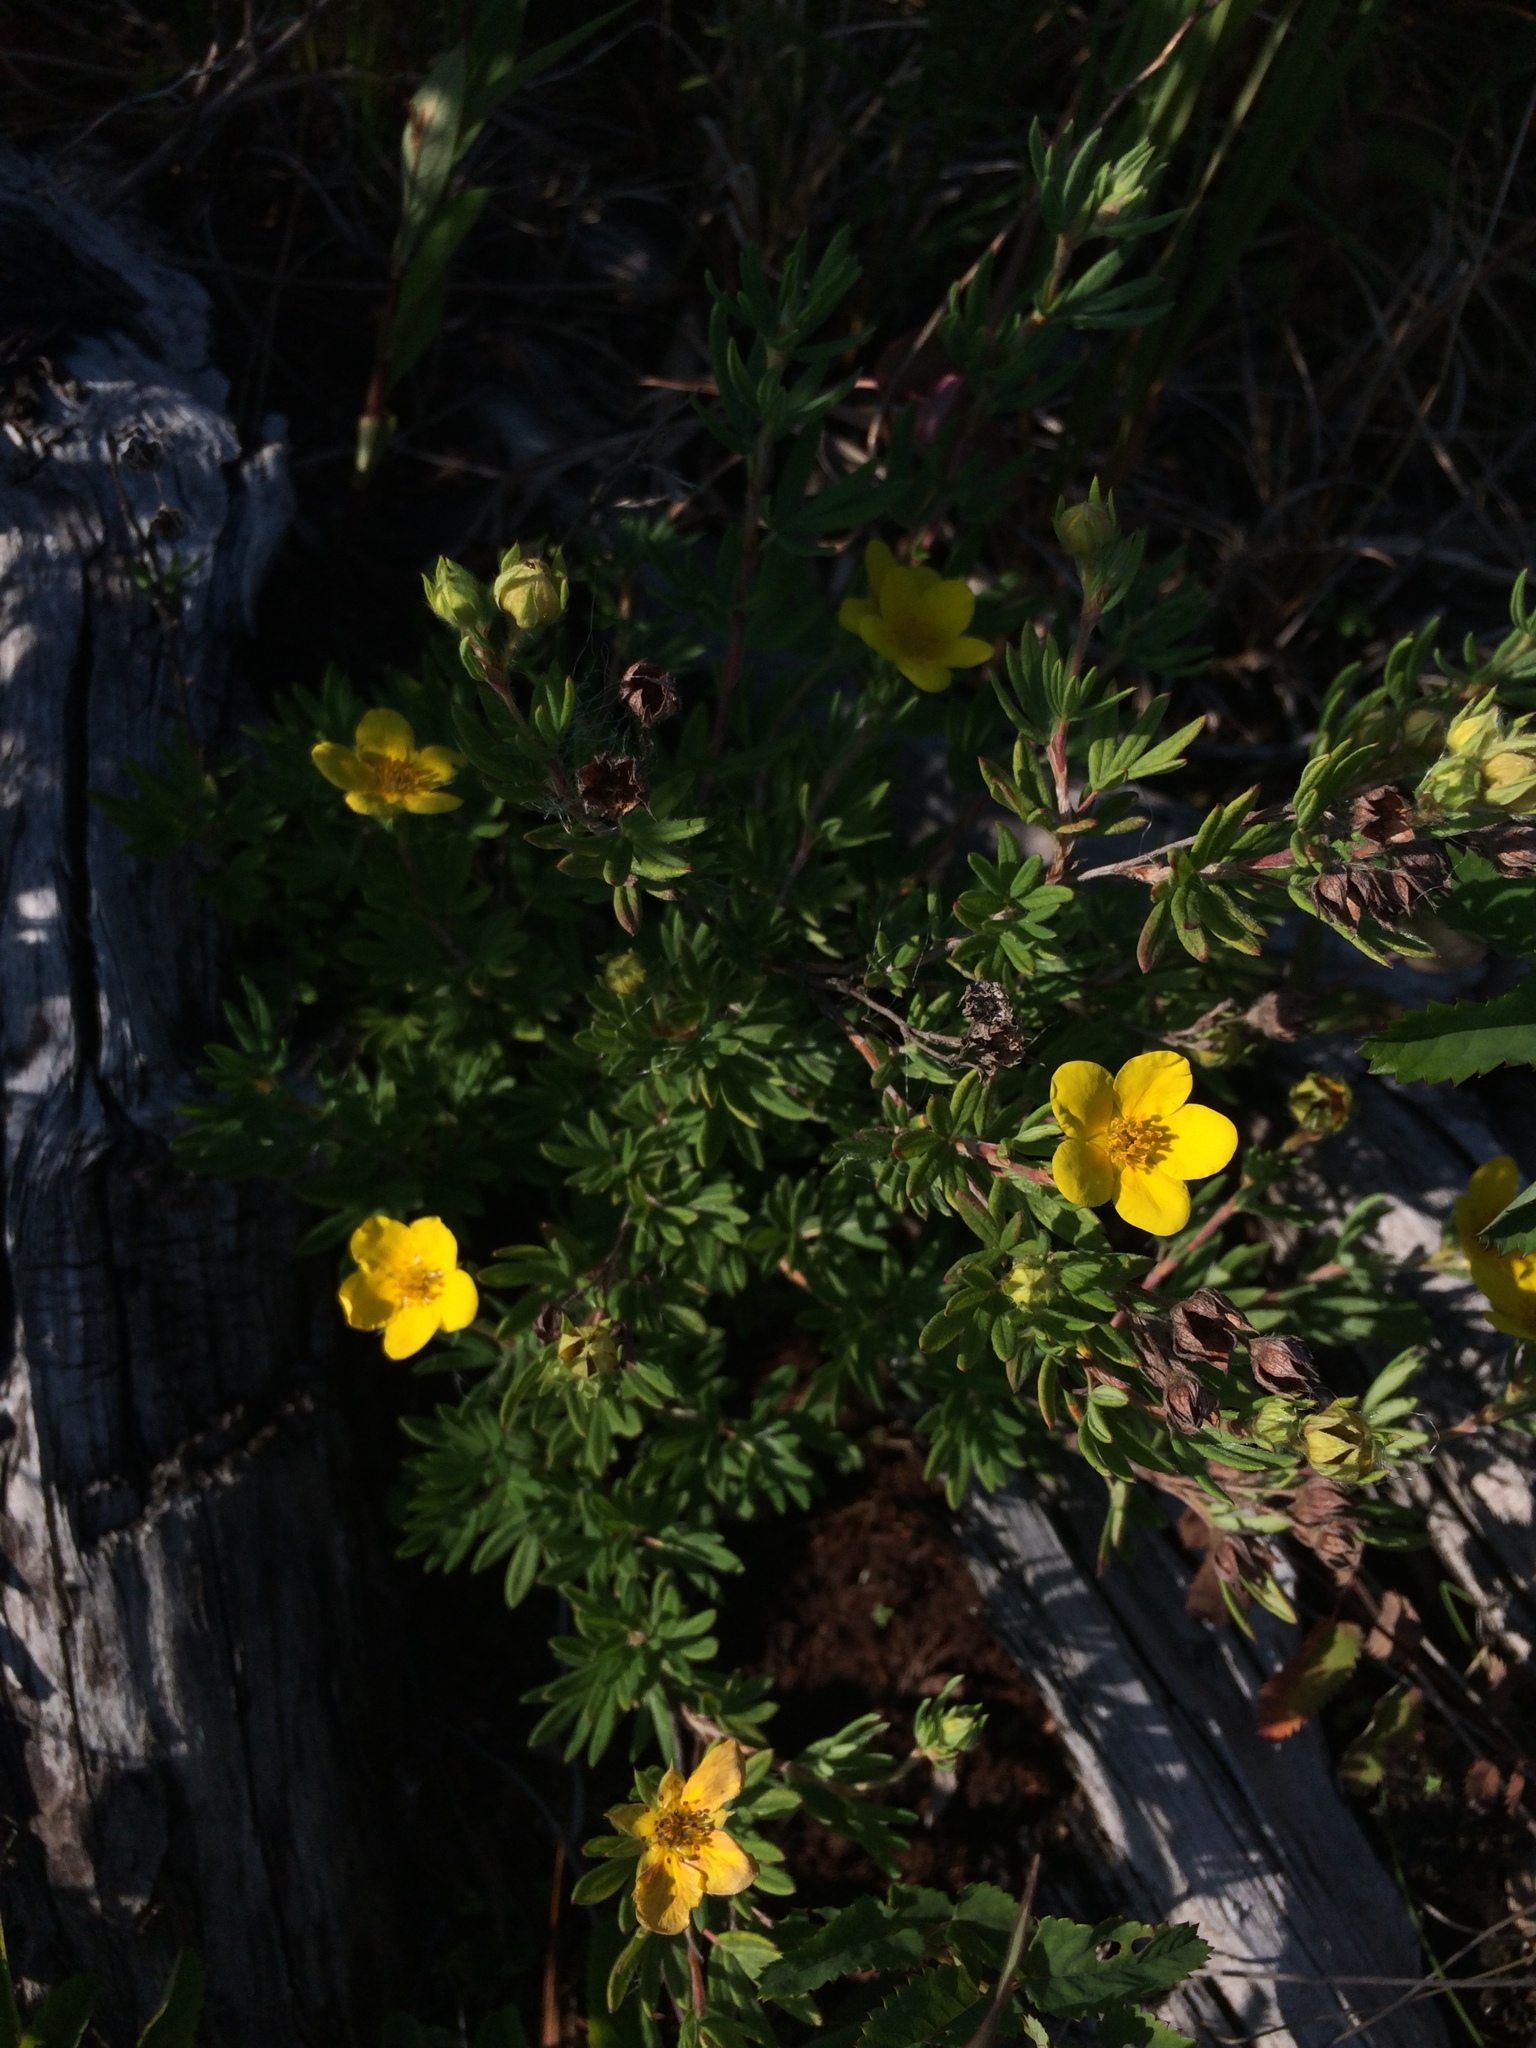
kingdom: Plantae
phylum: Tracheophyta
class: Magnoliopsida
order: Rosales
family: Rosaceae
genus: Dasiphora
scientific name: Dasiphora fruticosa
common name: Shrubby cinquefoil
